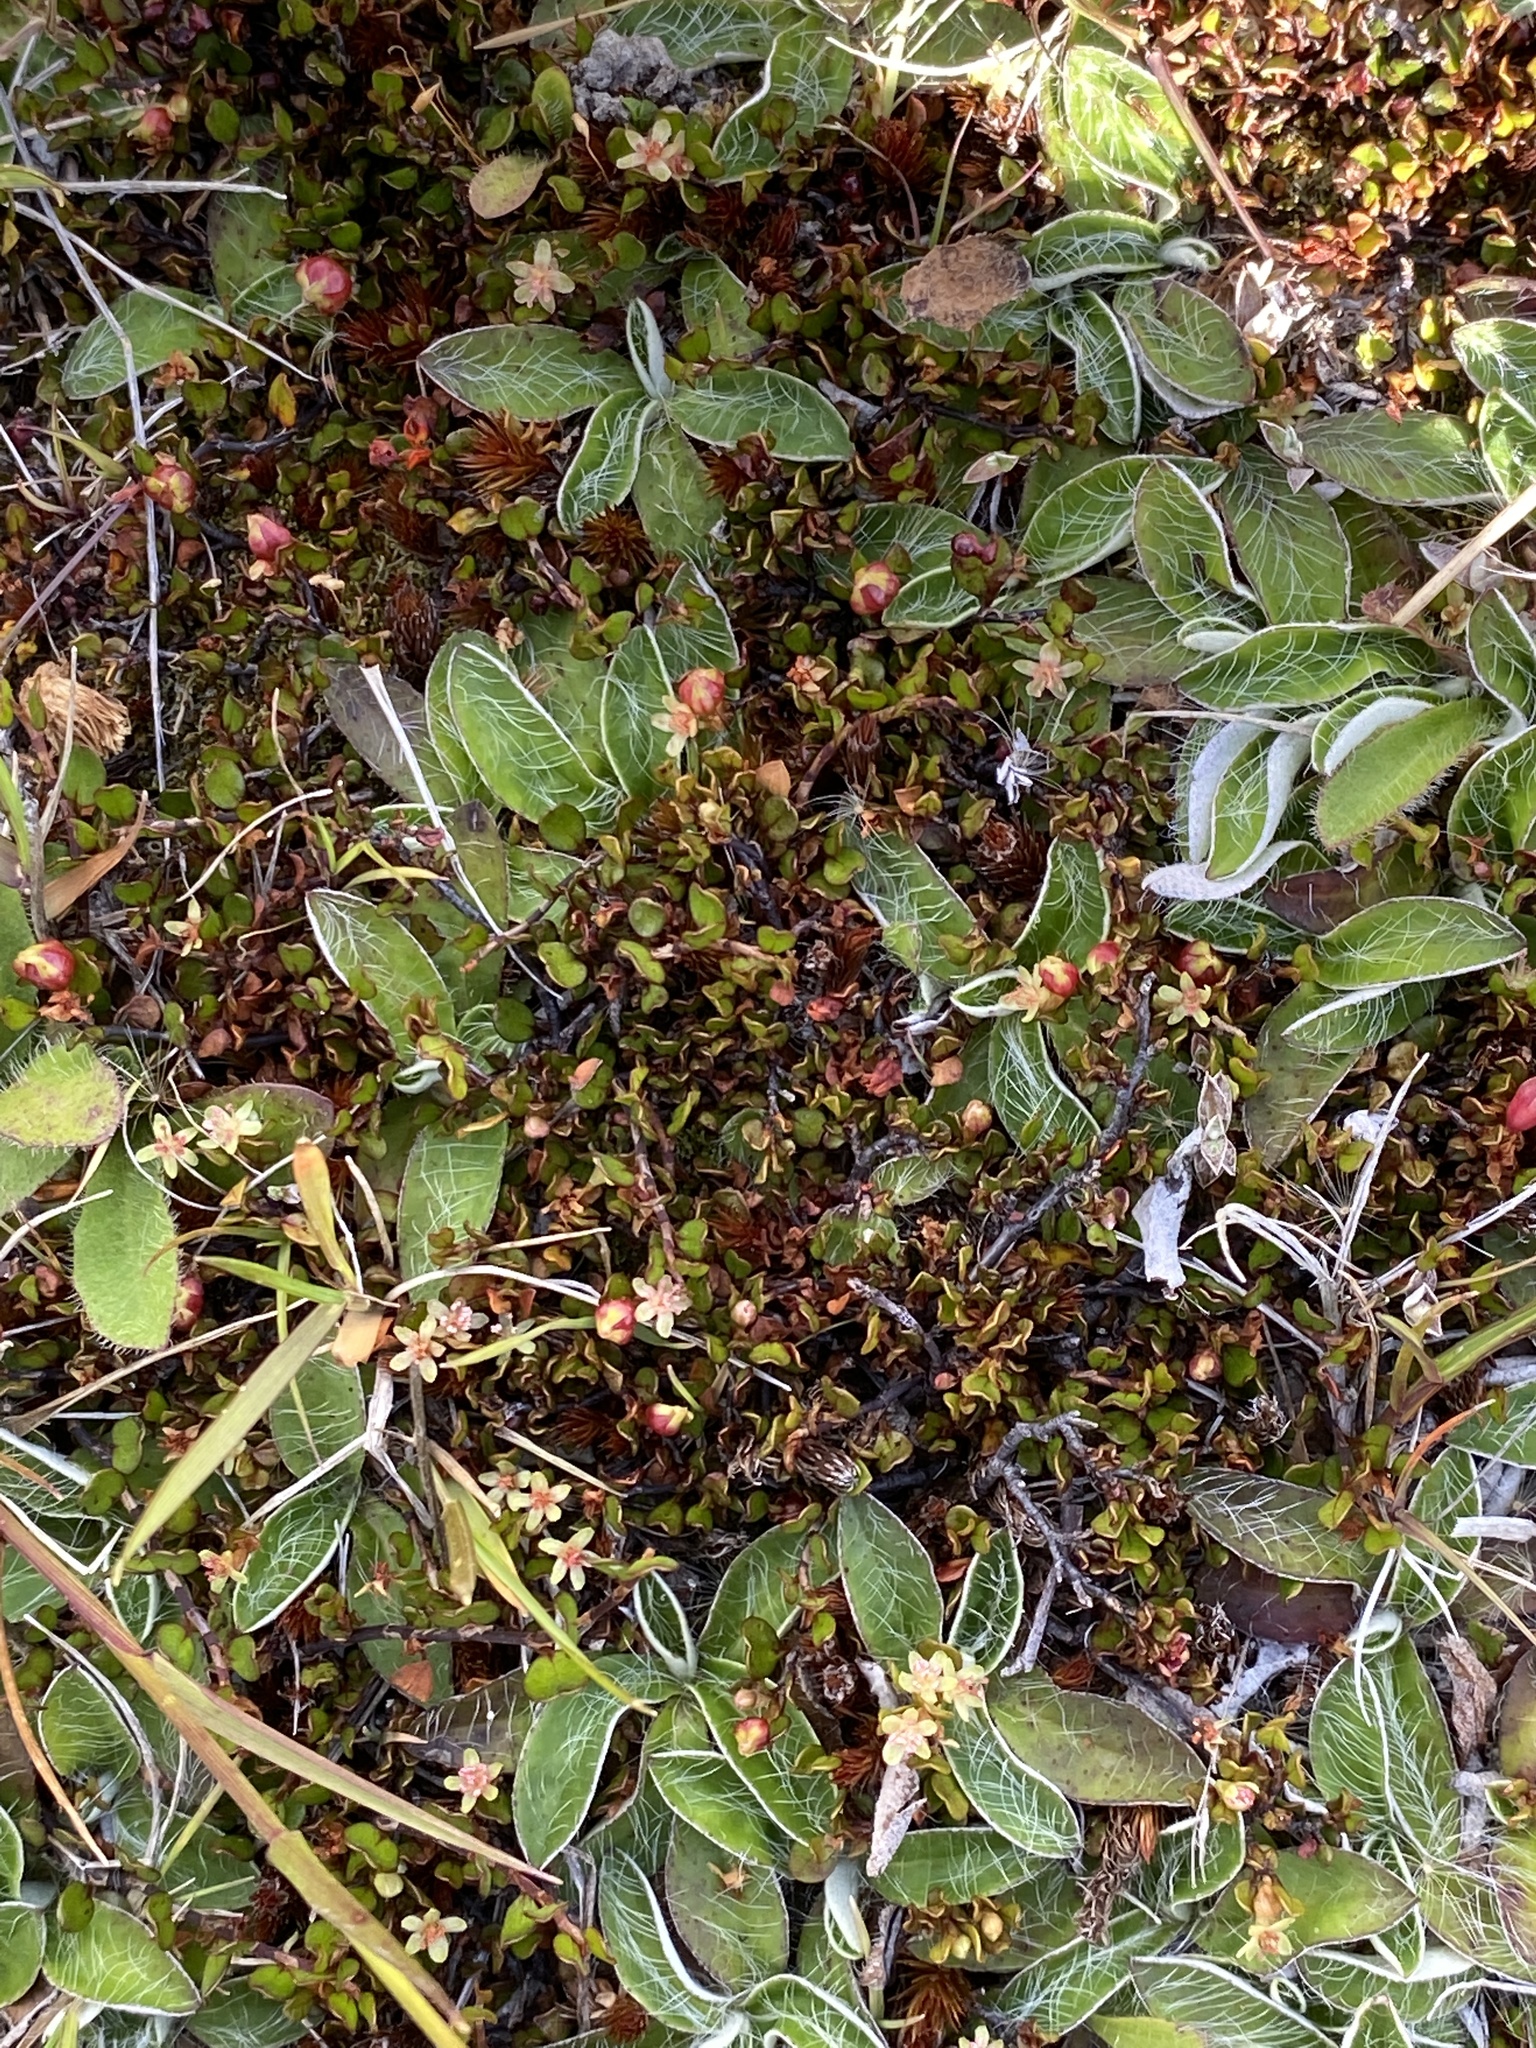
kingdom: Plantae
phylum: Tracheophyta
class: Magnoliopsida
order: Caryophyllales
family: Polygonaceae
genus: Muehlenbeckia
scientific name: Muehlenbeckia axillaris
